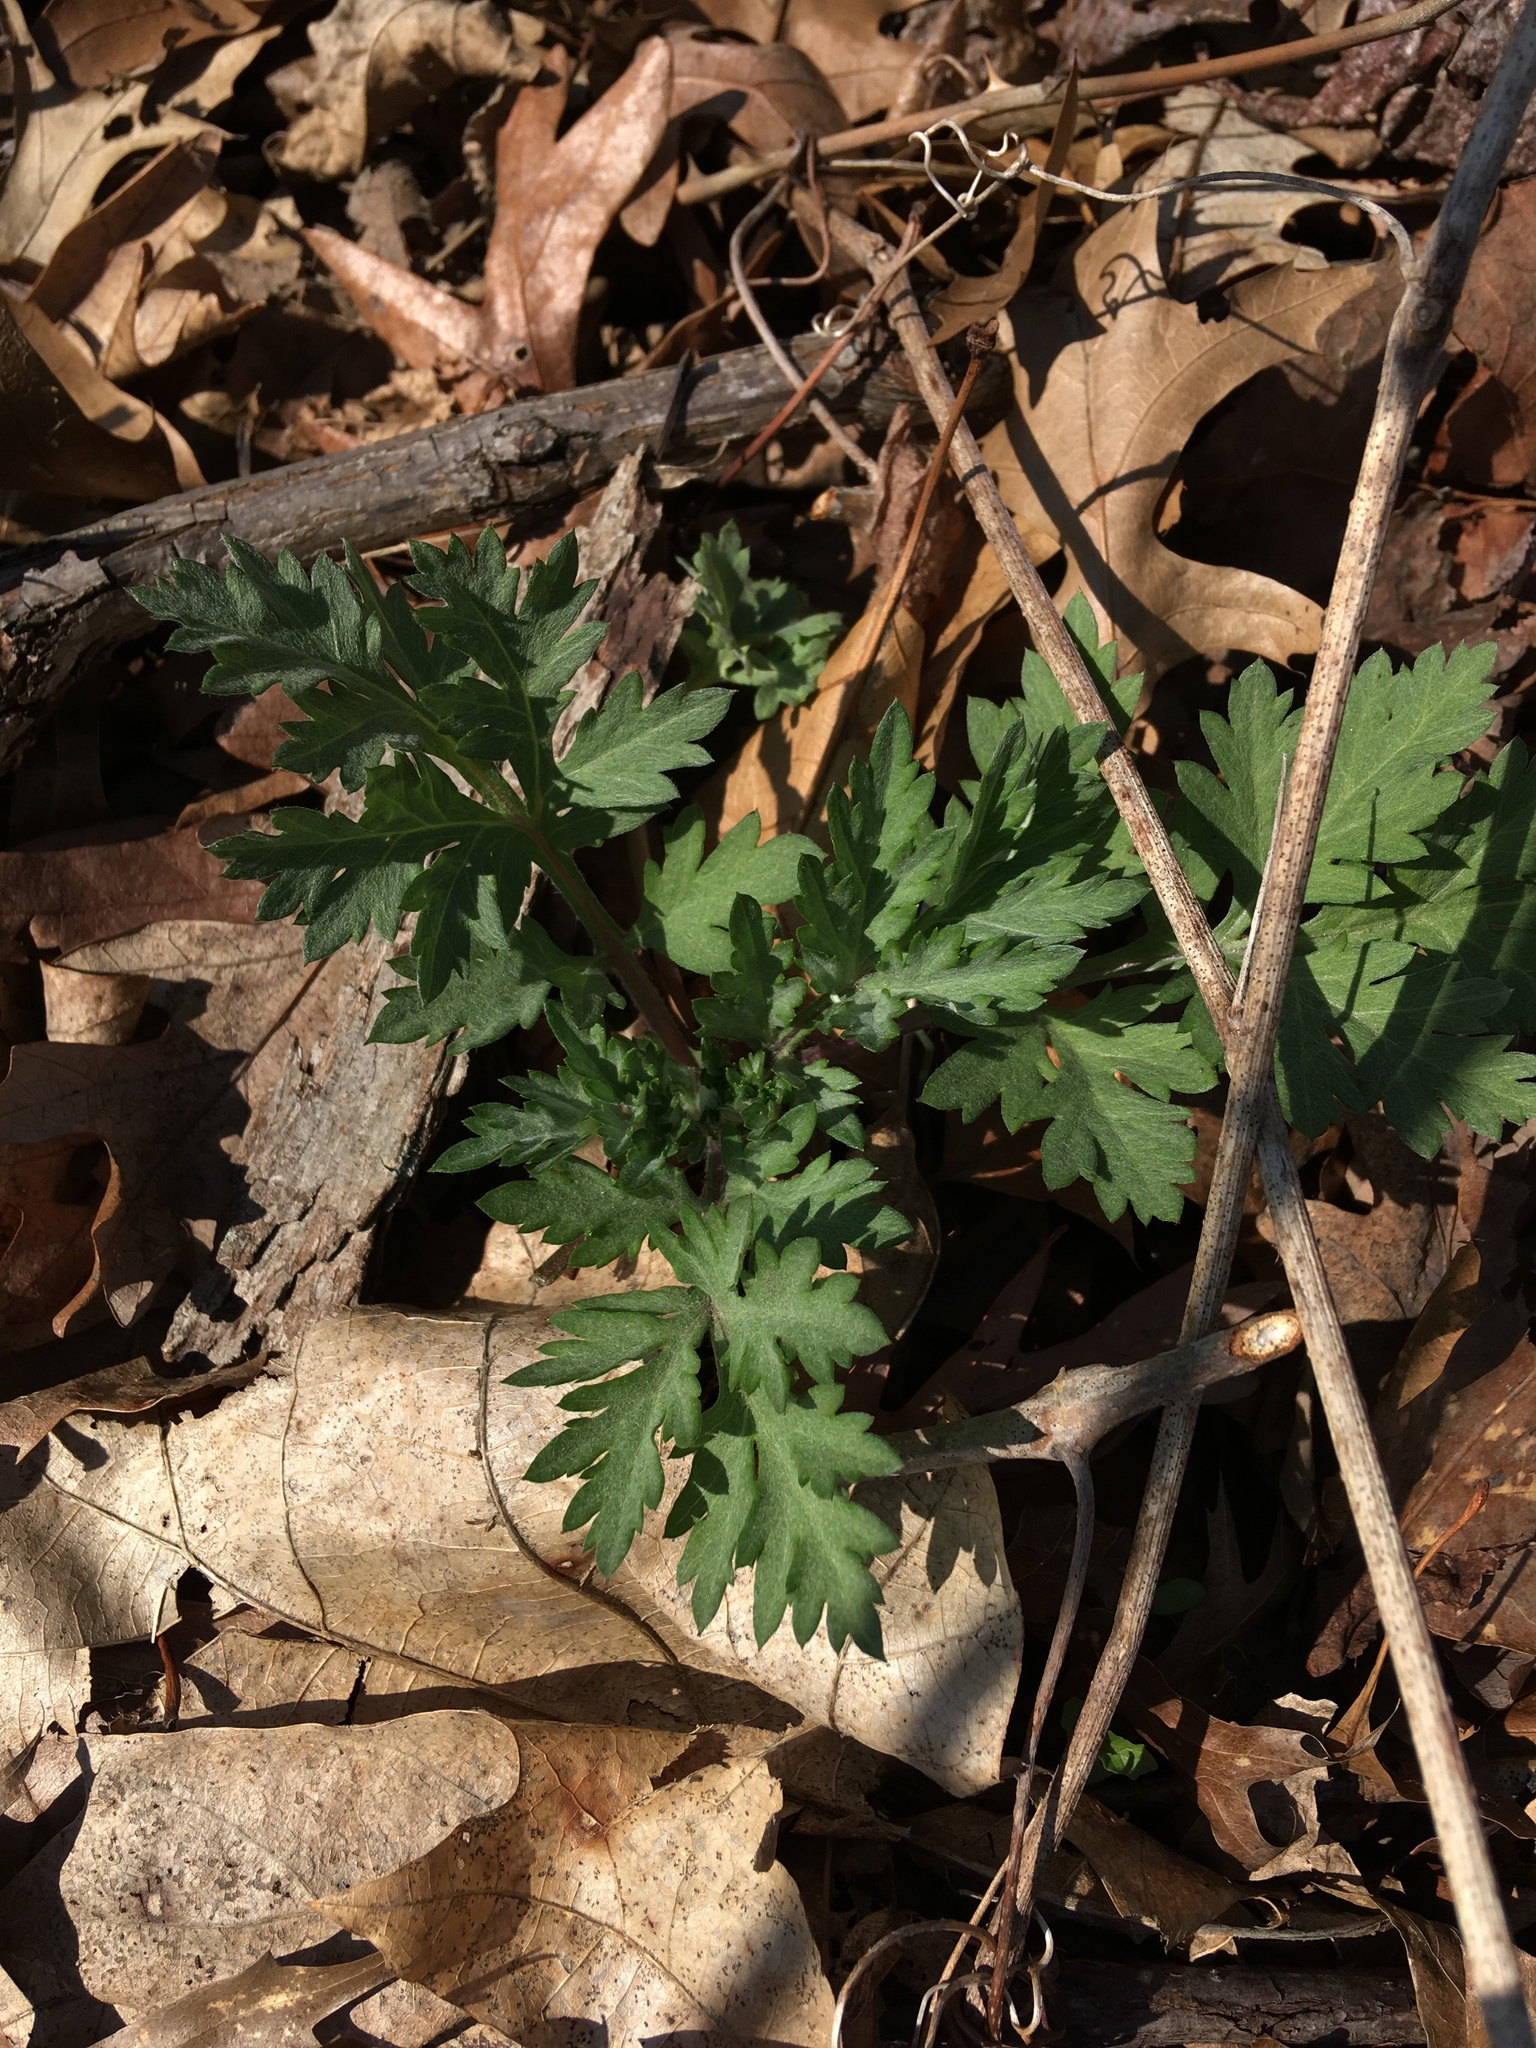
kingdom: Plantae
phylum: Tracheophyta
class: Magnoliopsida
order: Asterales
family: Asteraceae
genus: Artemisia
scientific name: Artemisia vulgaris
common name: Mugwort
